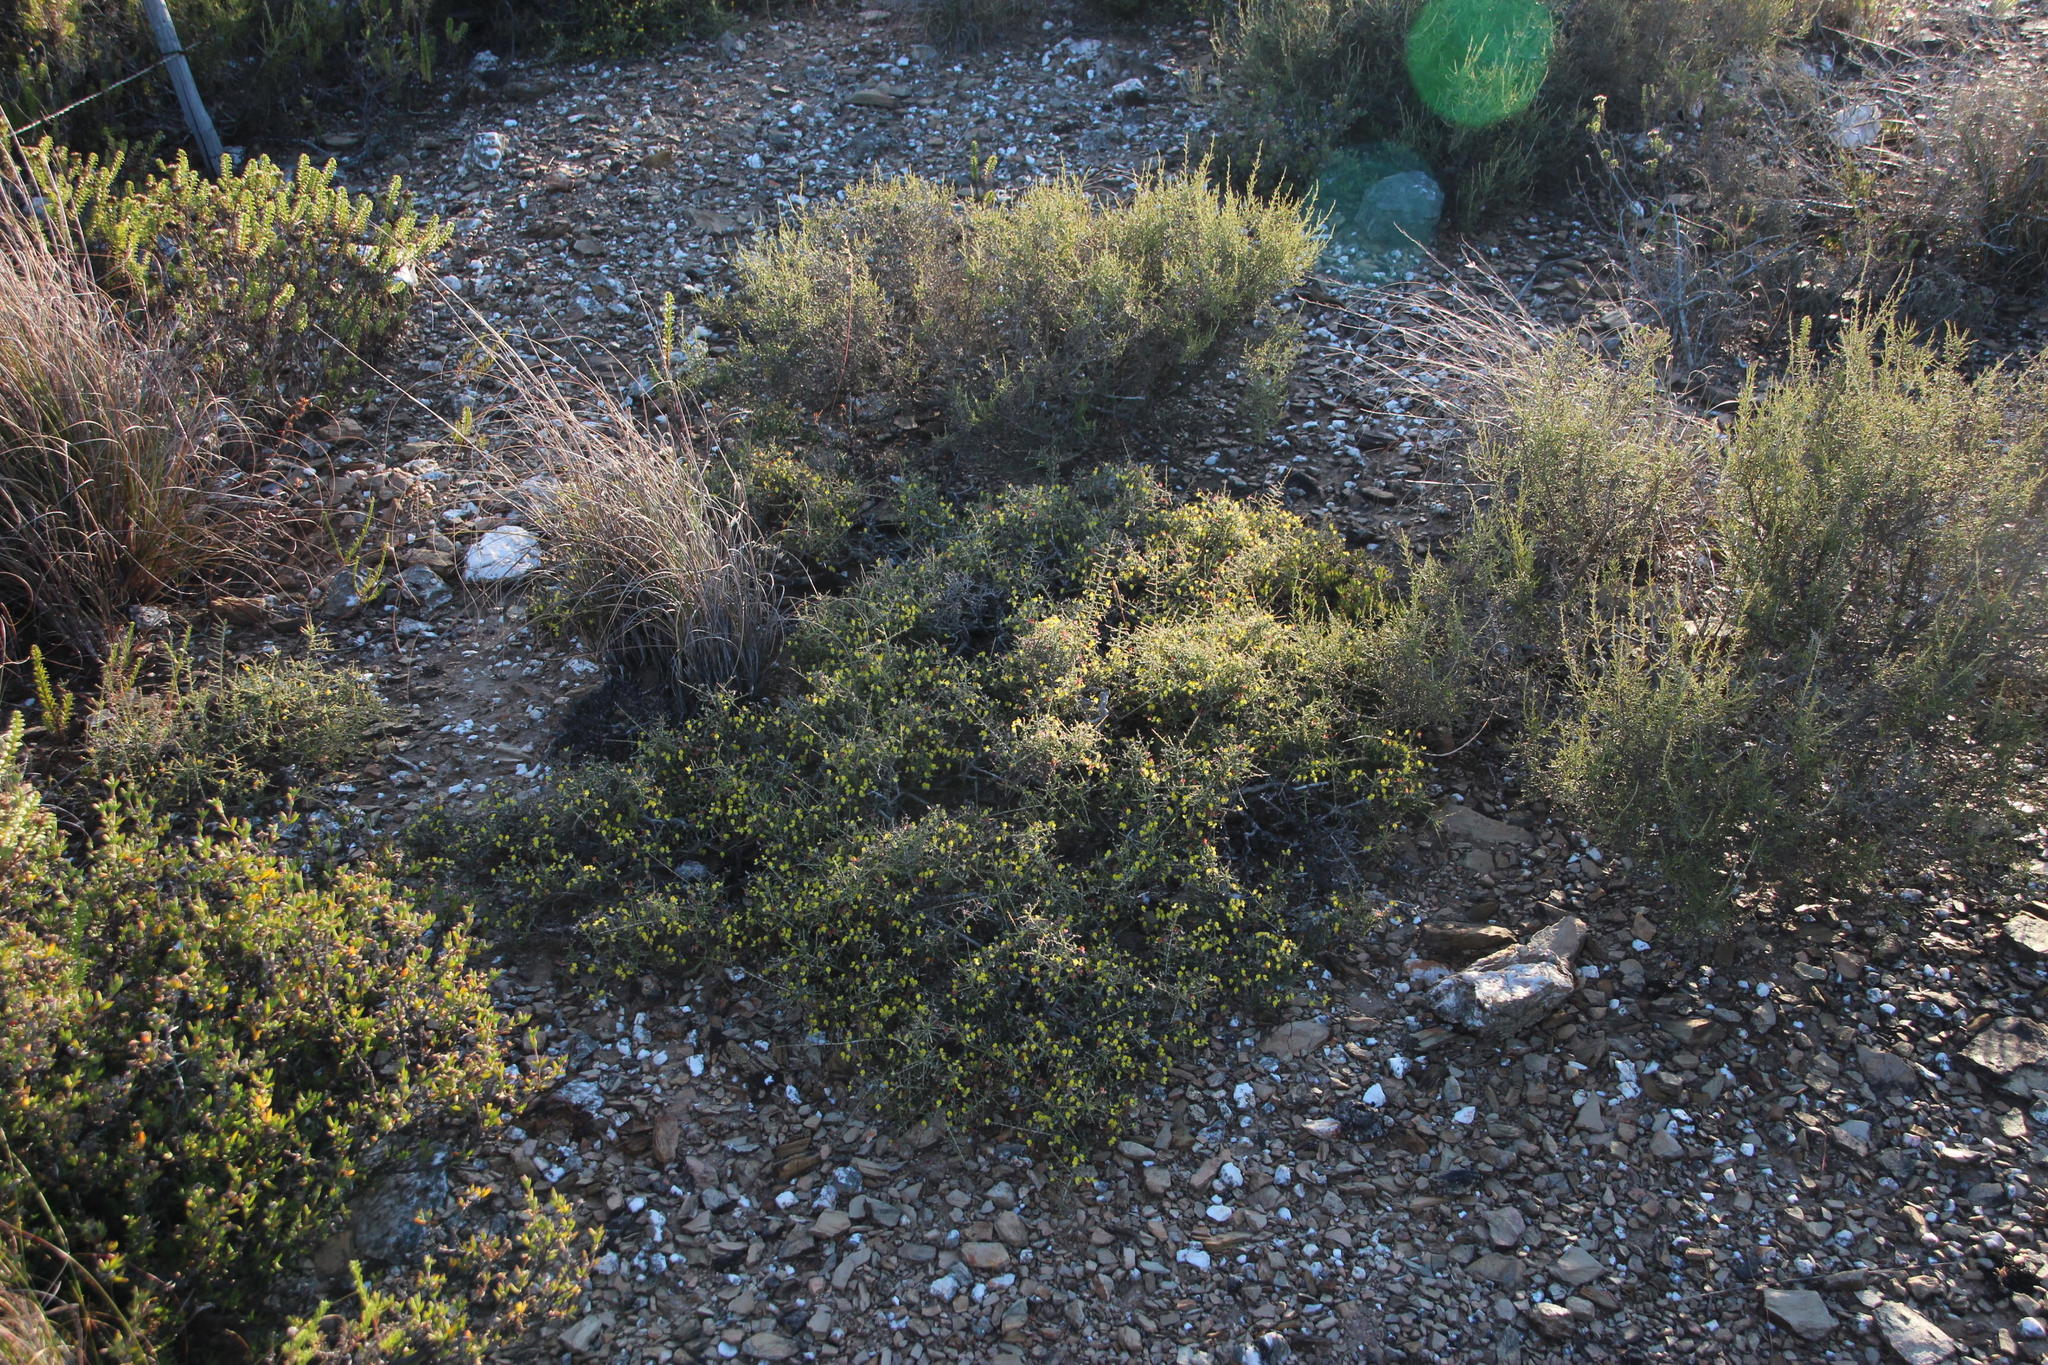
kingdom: Plantae
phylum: Tracheophyta
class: Magnoliopsida
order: Fabales
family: Fabaceae
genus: Aspalathus
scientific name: Aspalathus acuminata
